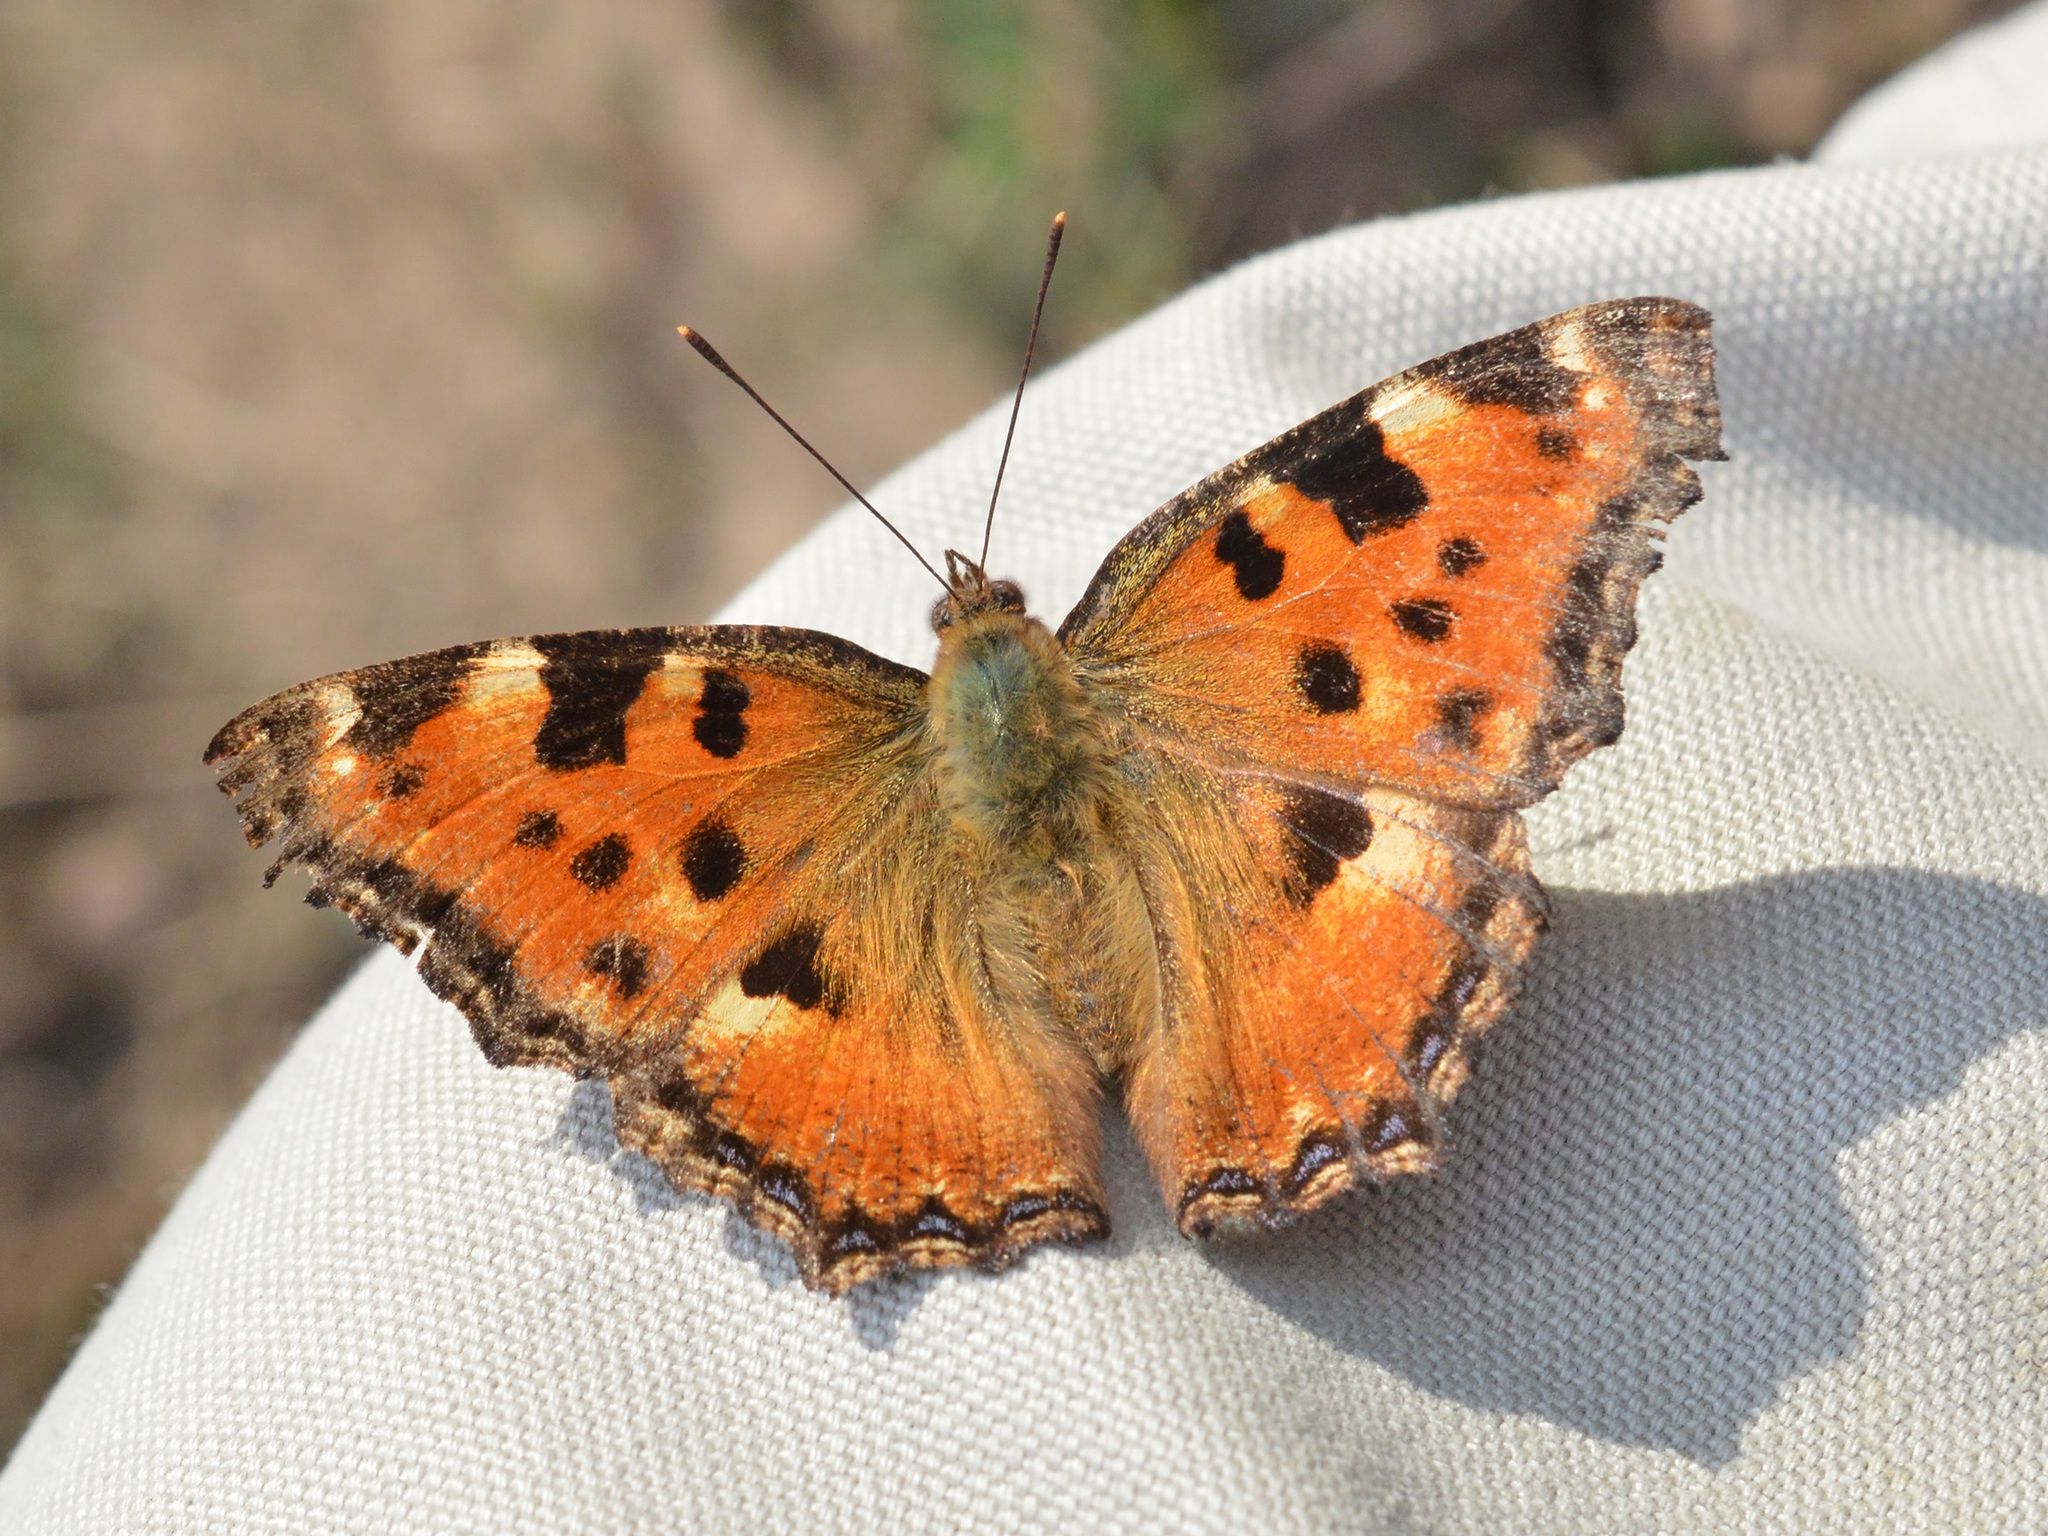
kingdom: Animalia
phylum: Arthropoda
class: Insecta
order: Lepidoptera
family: Nymphalidae
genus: Nymphalis
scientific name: Nymphalis polychloros
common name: Large tortoiseshell
